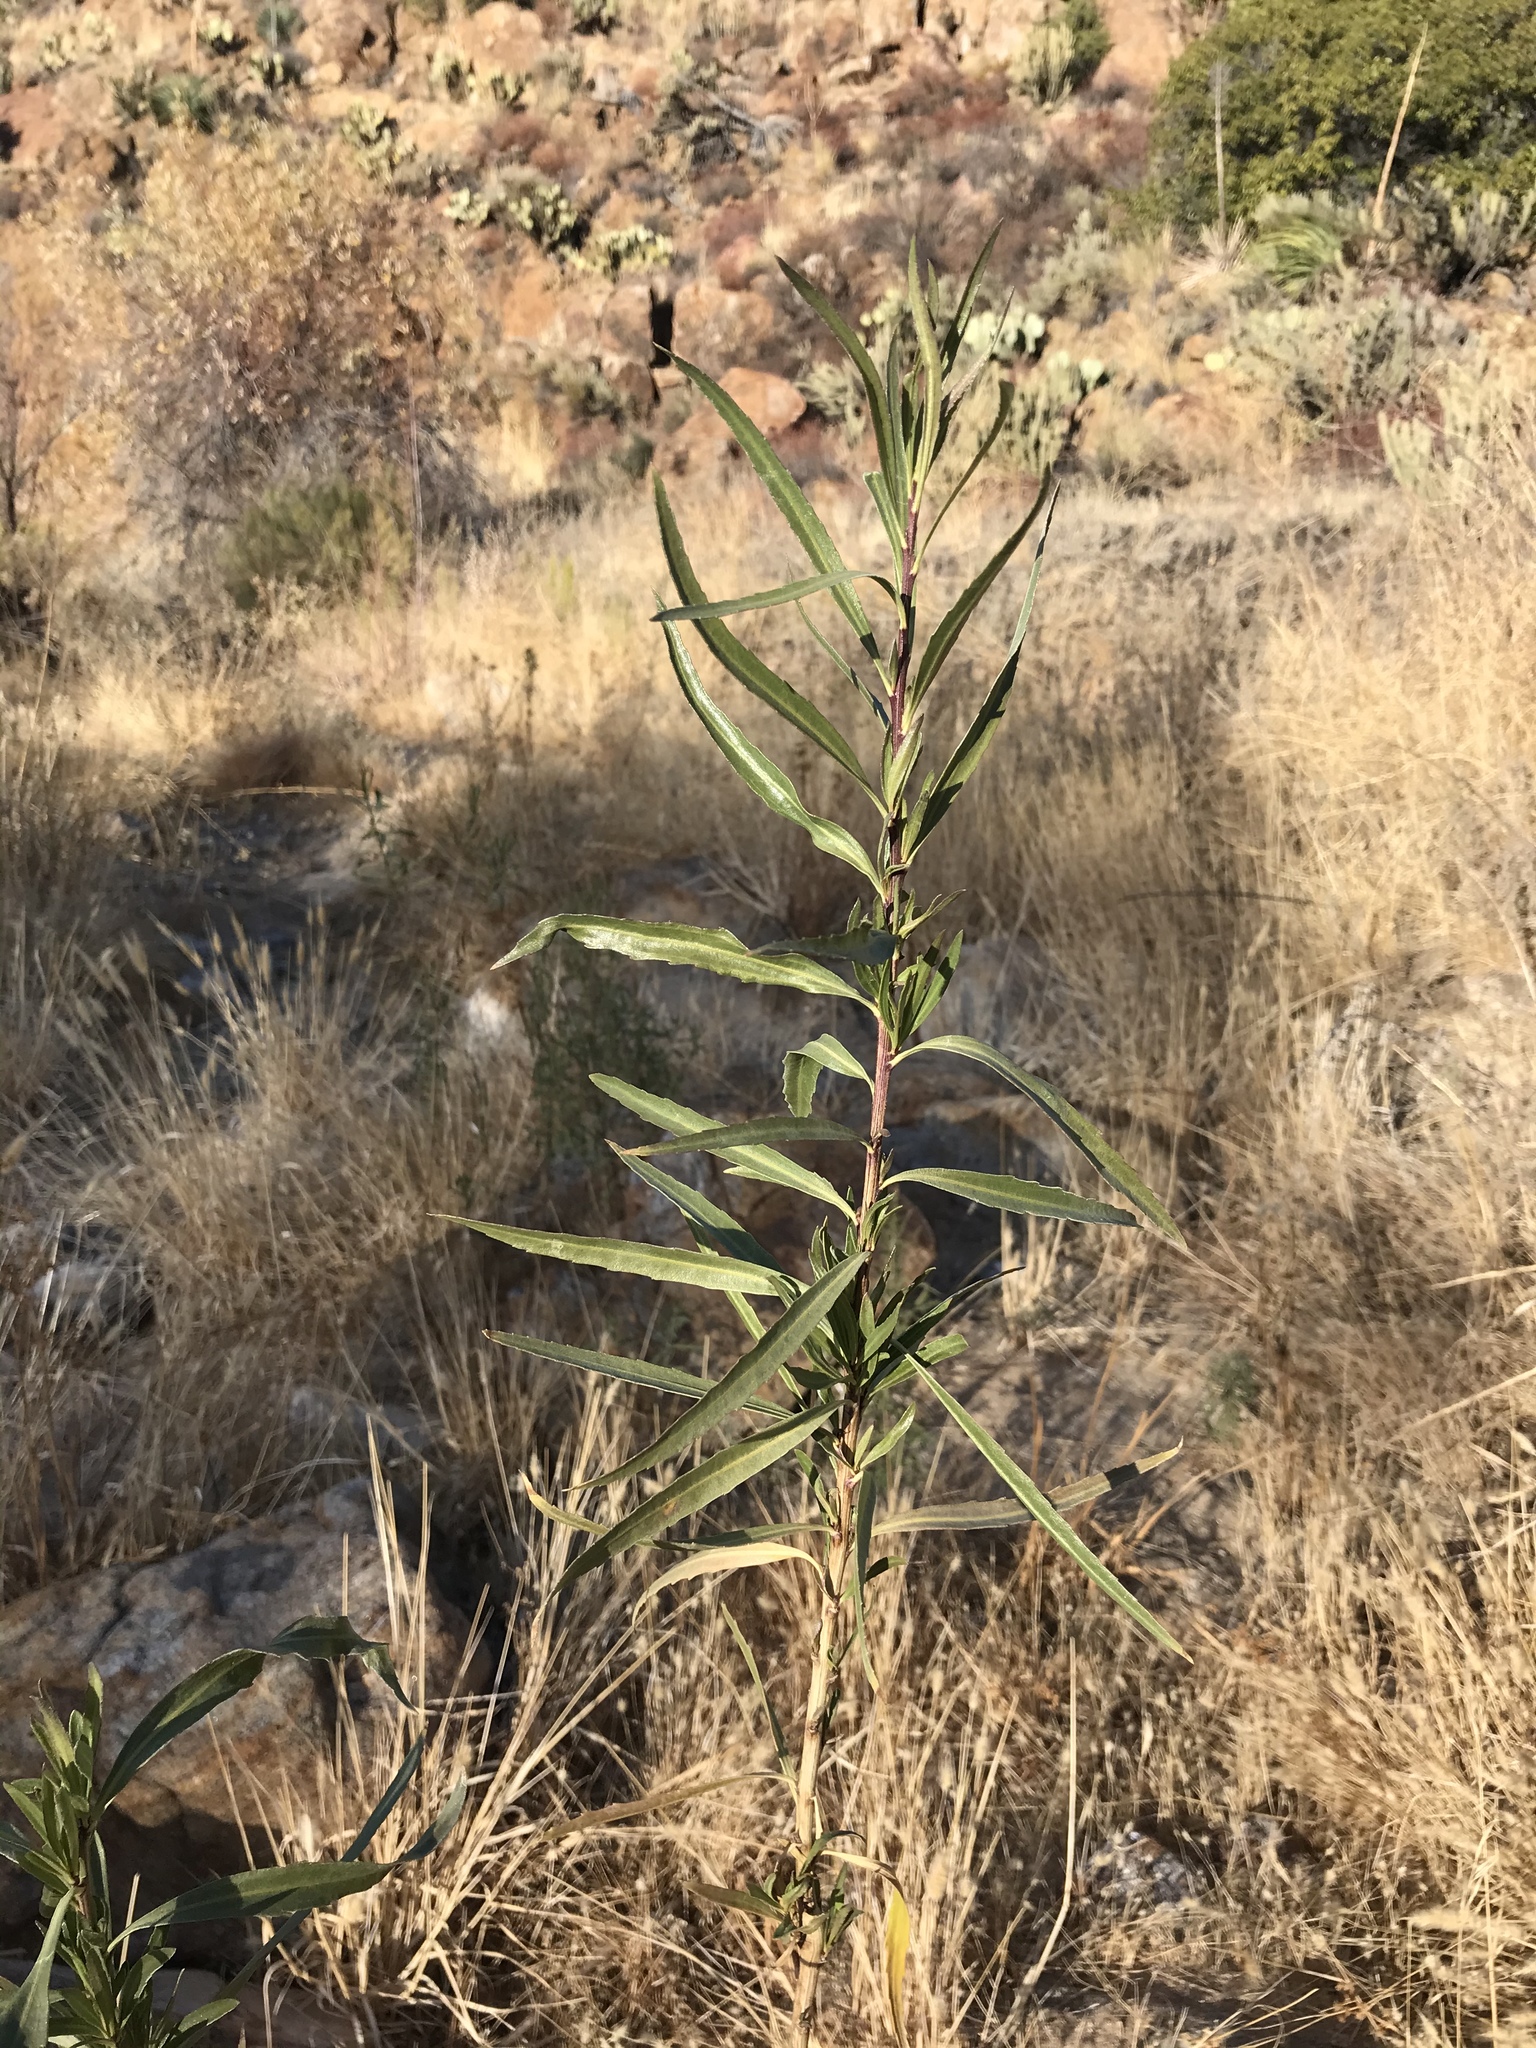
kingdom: Plantae
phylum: Tracheophyta
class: Magnoliopsida
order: Asterales
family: Asteraceae
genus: Baccharis
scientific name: Baccharis salicifolia
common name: Sticky baccharis
